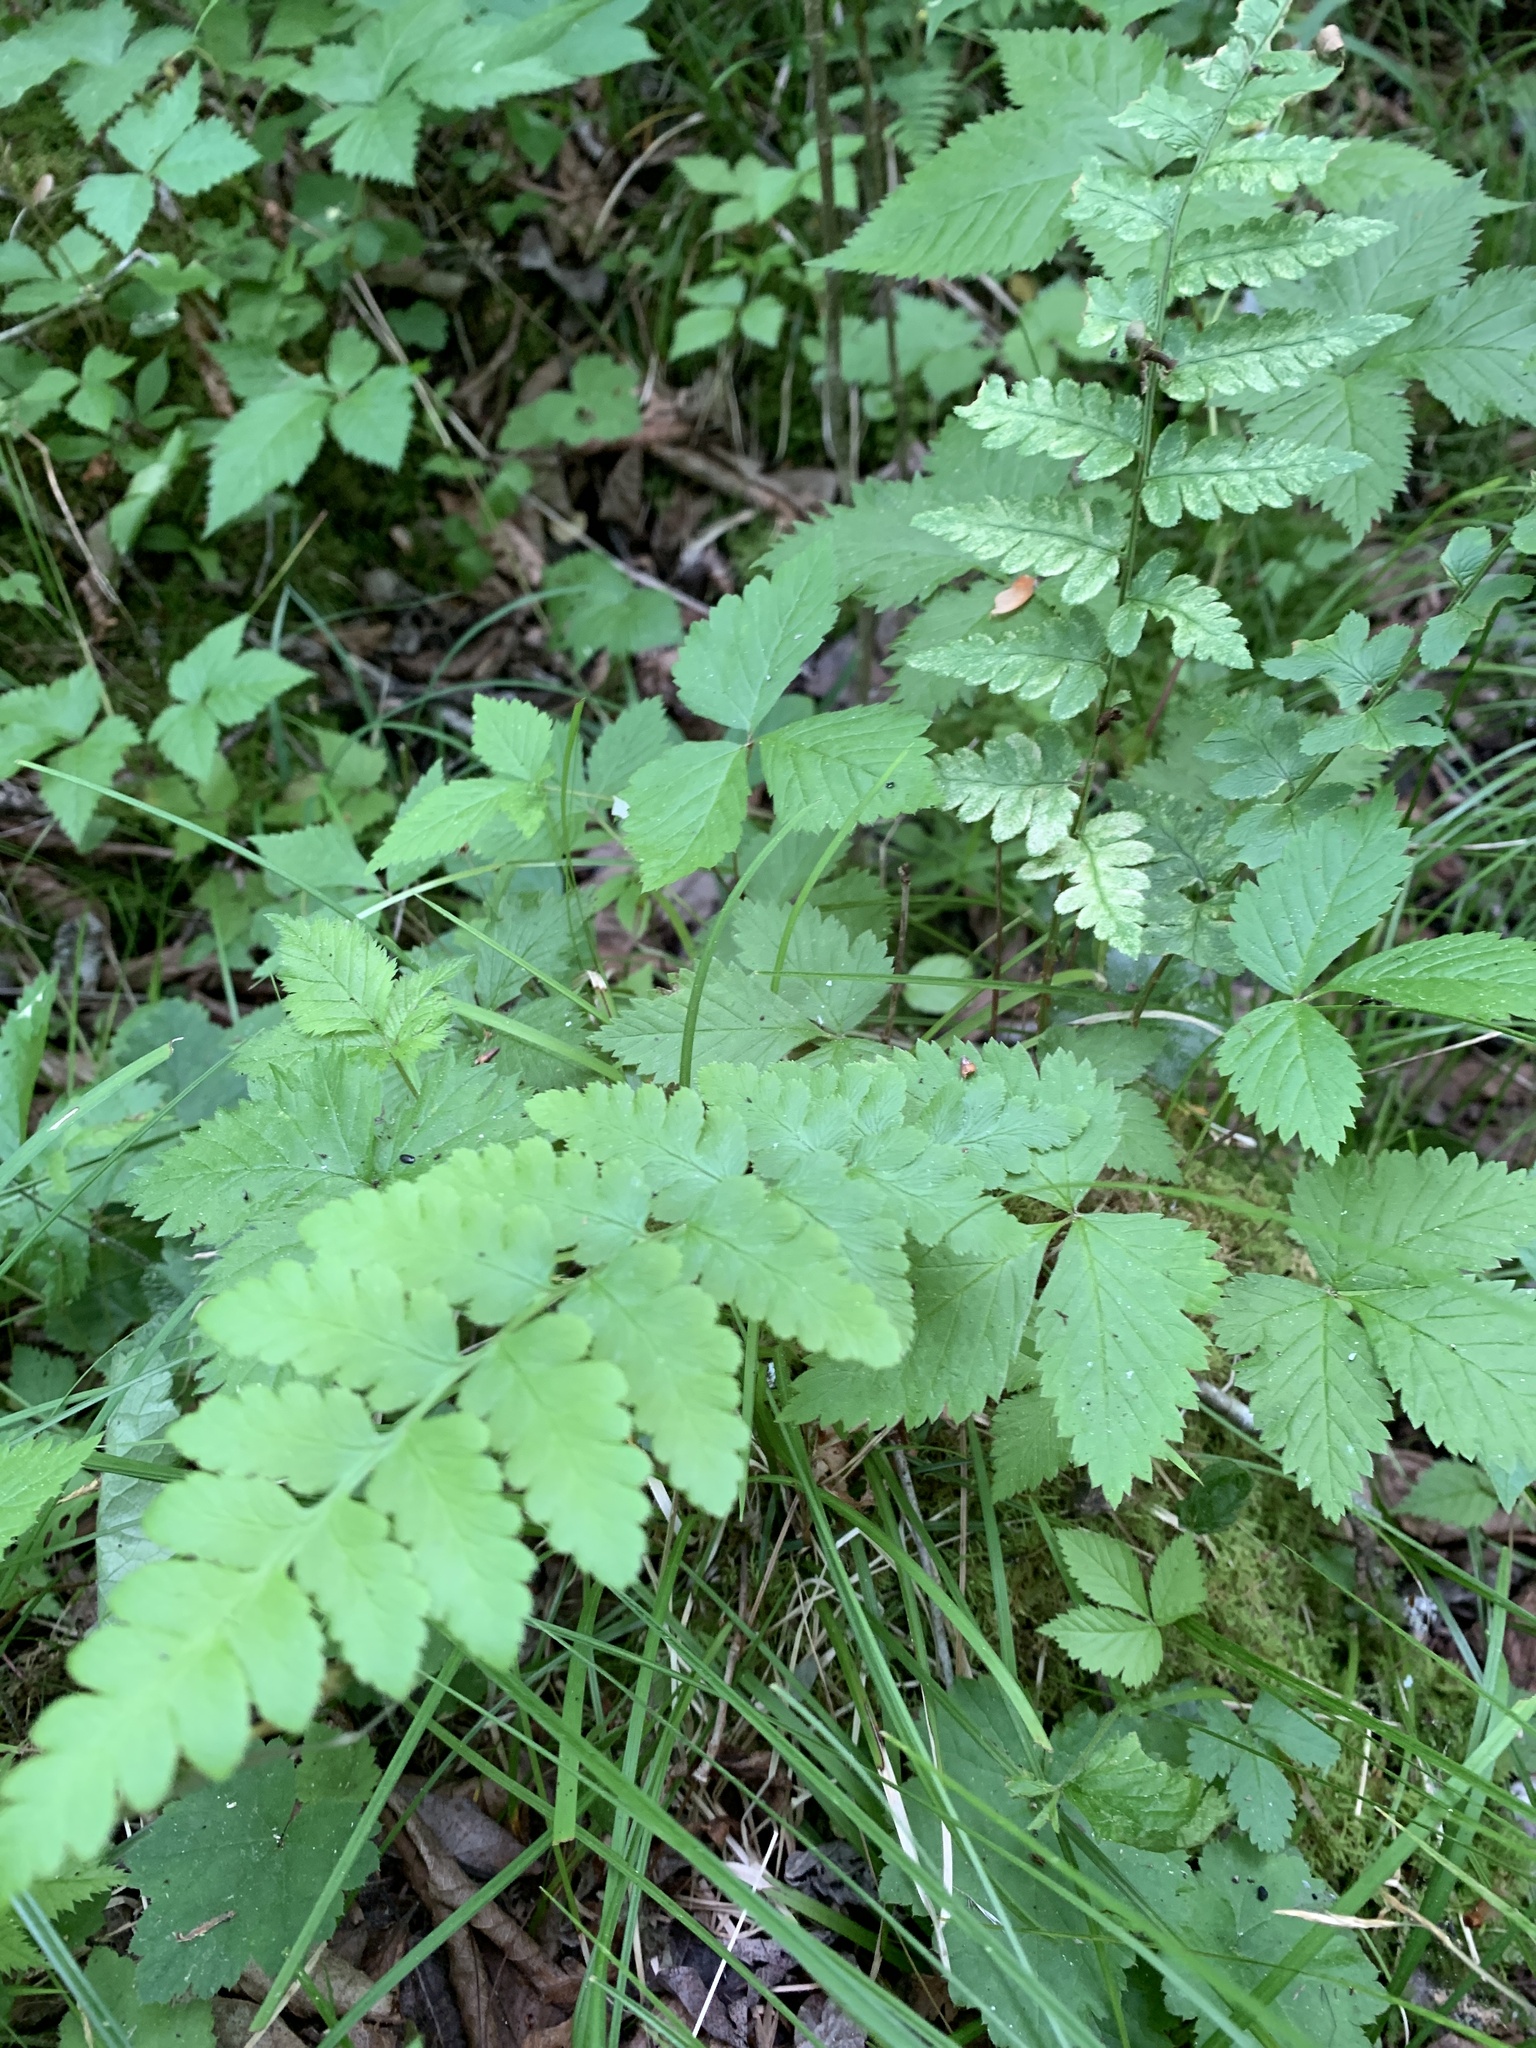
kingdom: Plantae
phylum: Tracheophyta
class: Polypodiopsida
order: Polypodiales
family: Dryopteridaceae
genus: Dryopteris
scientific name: Dryopteris cristata
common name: Crested wood fern
